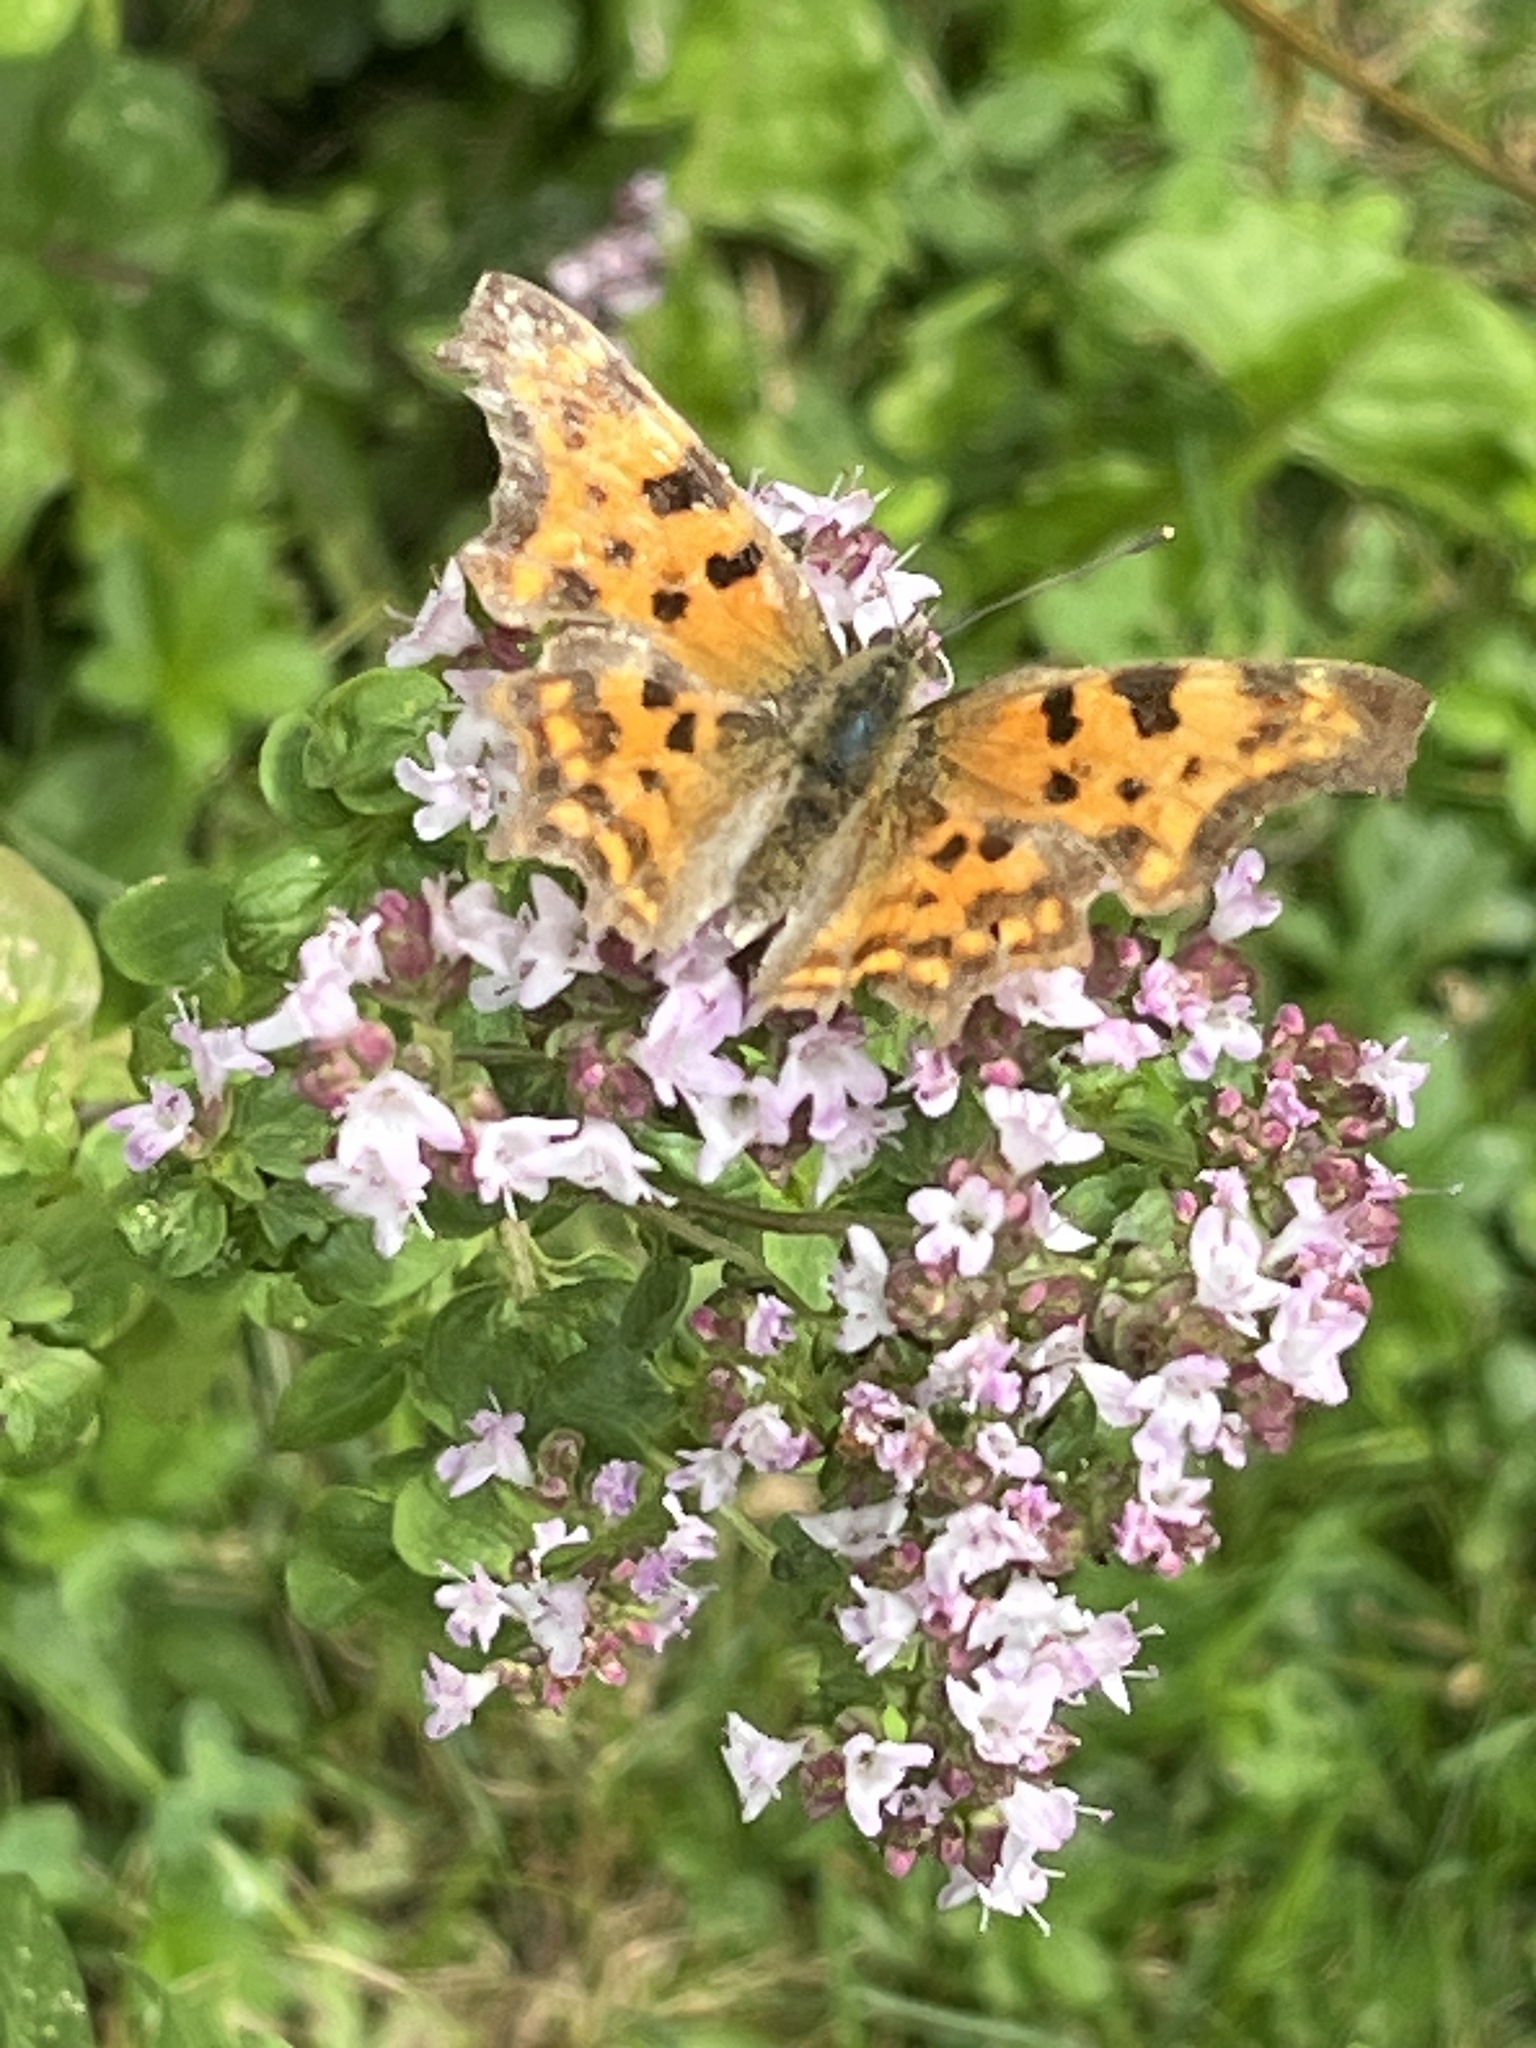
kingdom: Animalia
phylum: Arthropoda
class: Insecta
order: Lepidoptera
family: Nymphalidae
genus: Polygonia
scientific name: Polygonia c-album
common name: Comma
